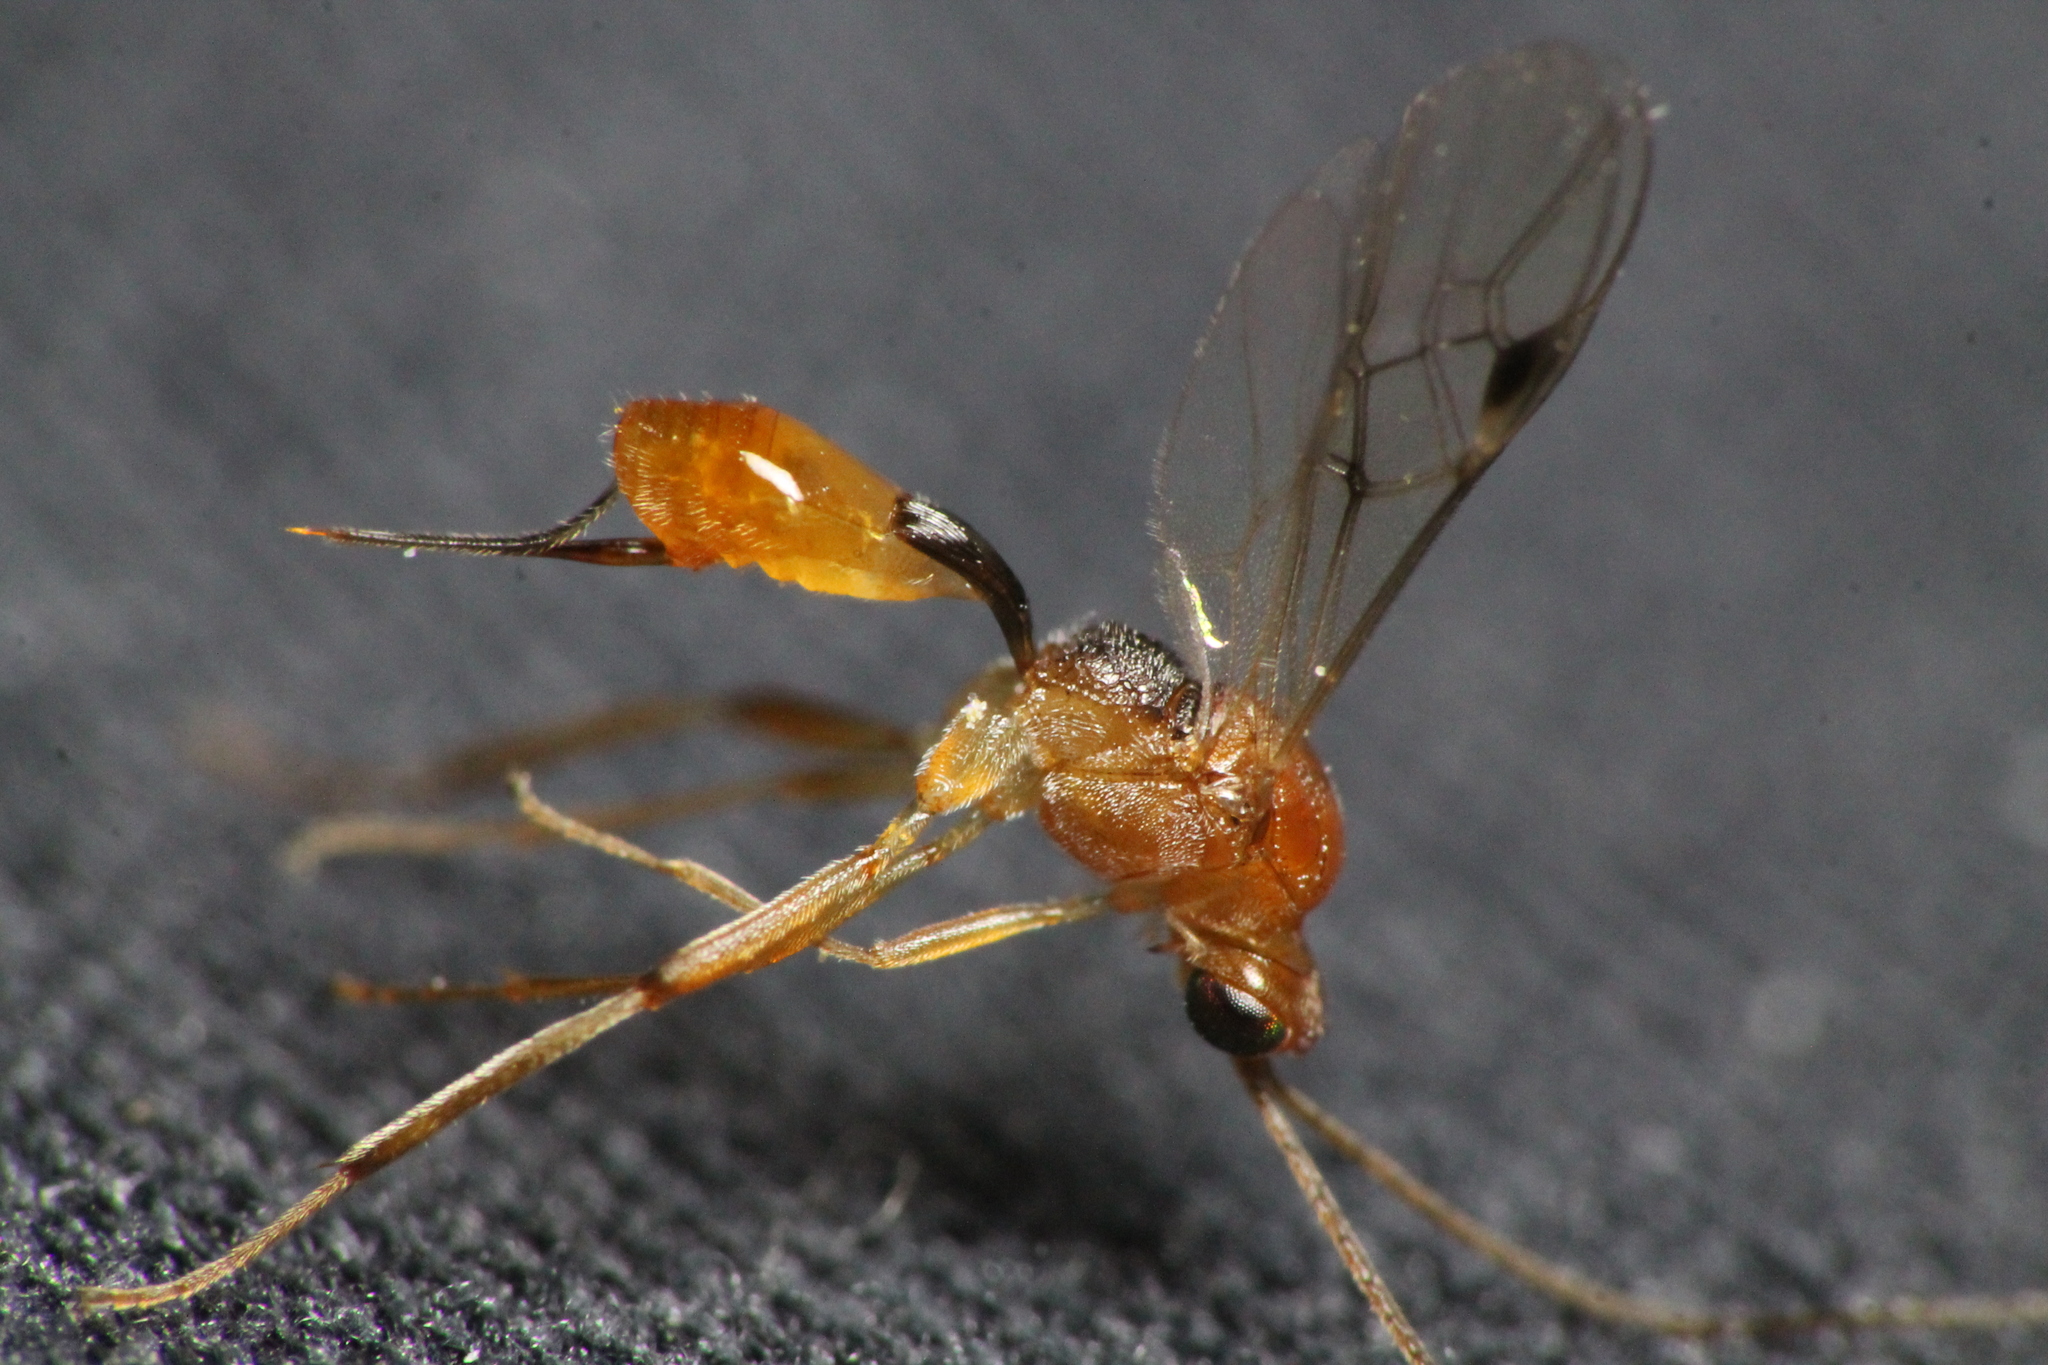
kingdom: Animalia
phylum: Arthropoda
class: Insecta
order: Hymenoptera
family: Braconidae
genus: Meteorus
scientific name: Meteorus pulchricornis
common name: Braconid wasp
